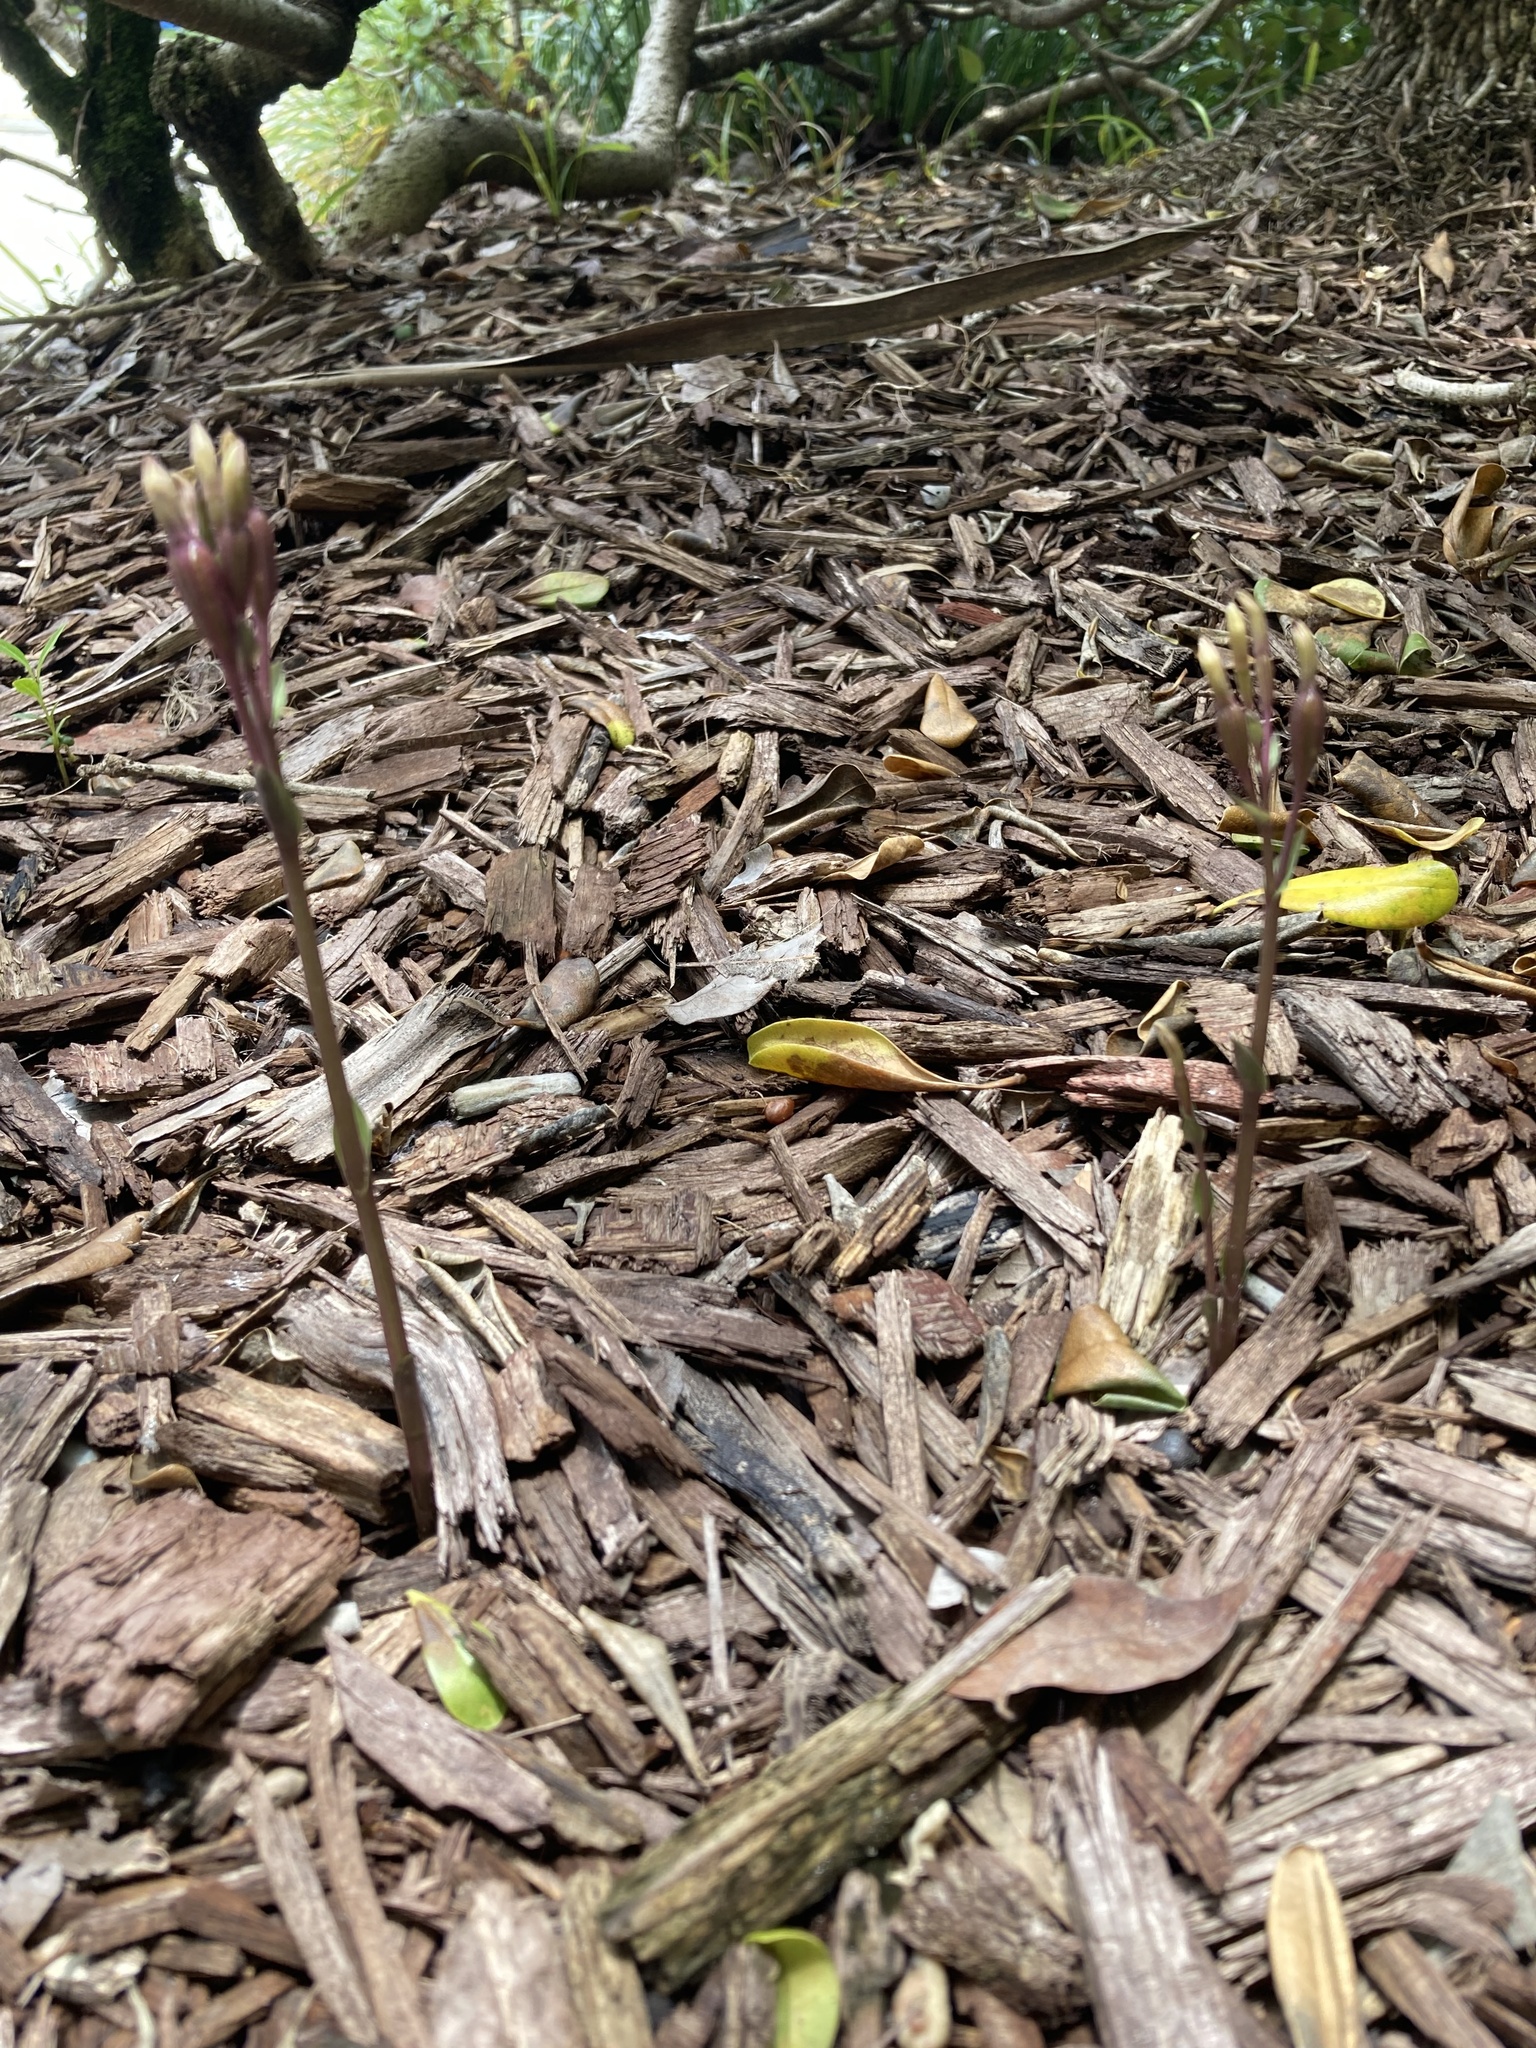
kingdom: Plantae
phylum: Tracheophyta
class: Liliopsida
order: Asparagales
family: Orchidaceae
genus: Triphora
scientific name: Triphora gentianoides
